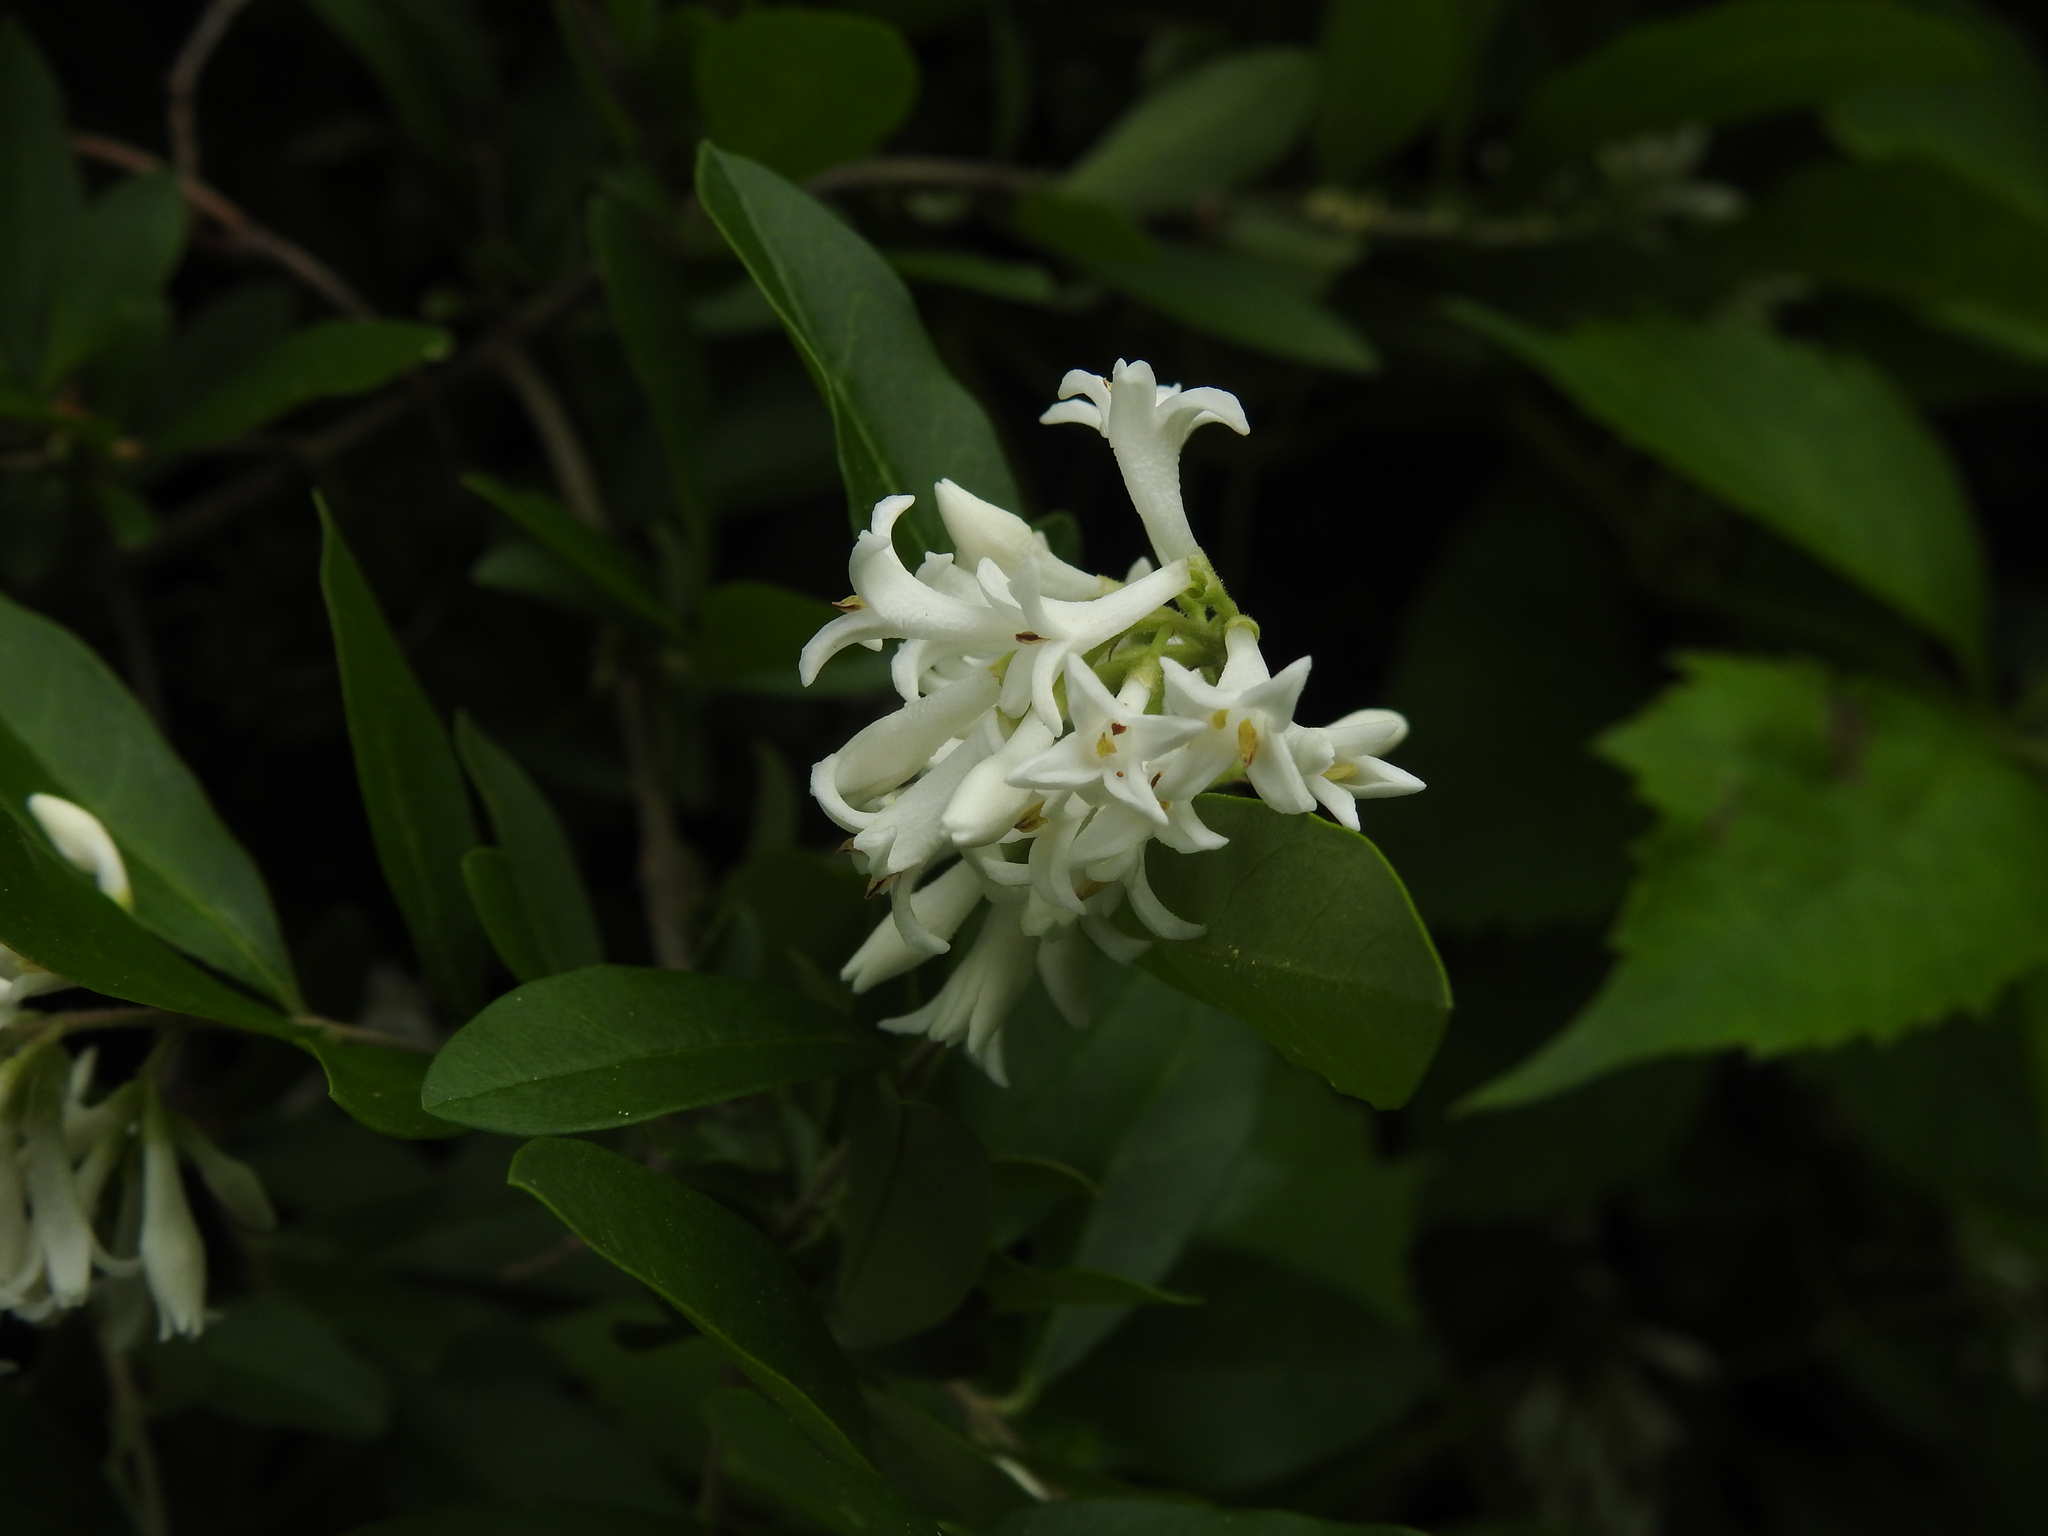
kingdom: Plantae
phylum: Tracheophyta
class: Magnoliopsida
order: Lamiales
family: Oleaceae
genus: Ligustrum
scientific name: Ligustrum obtusifolium
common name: Border privet
